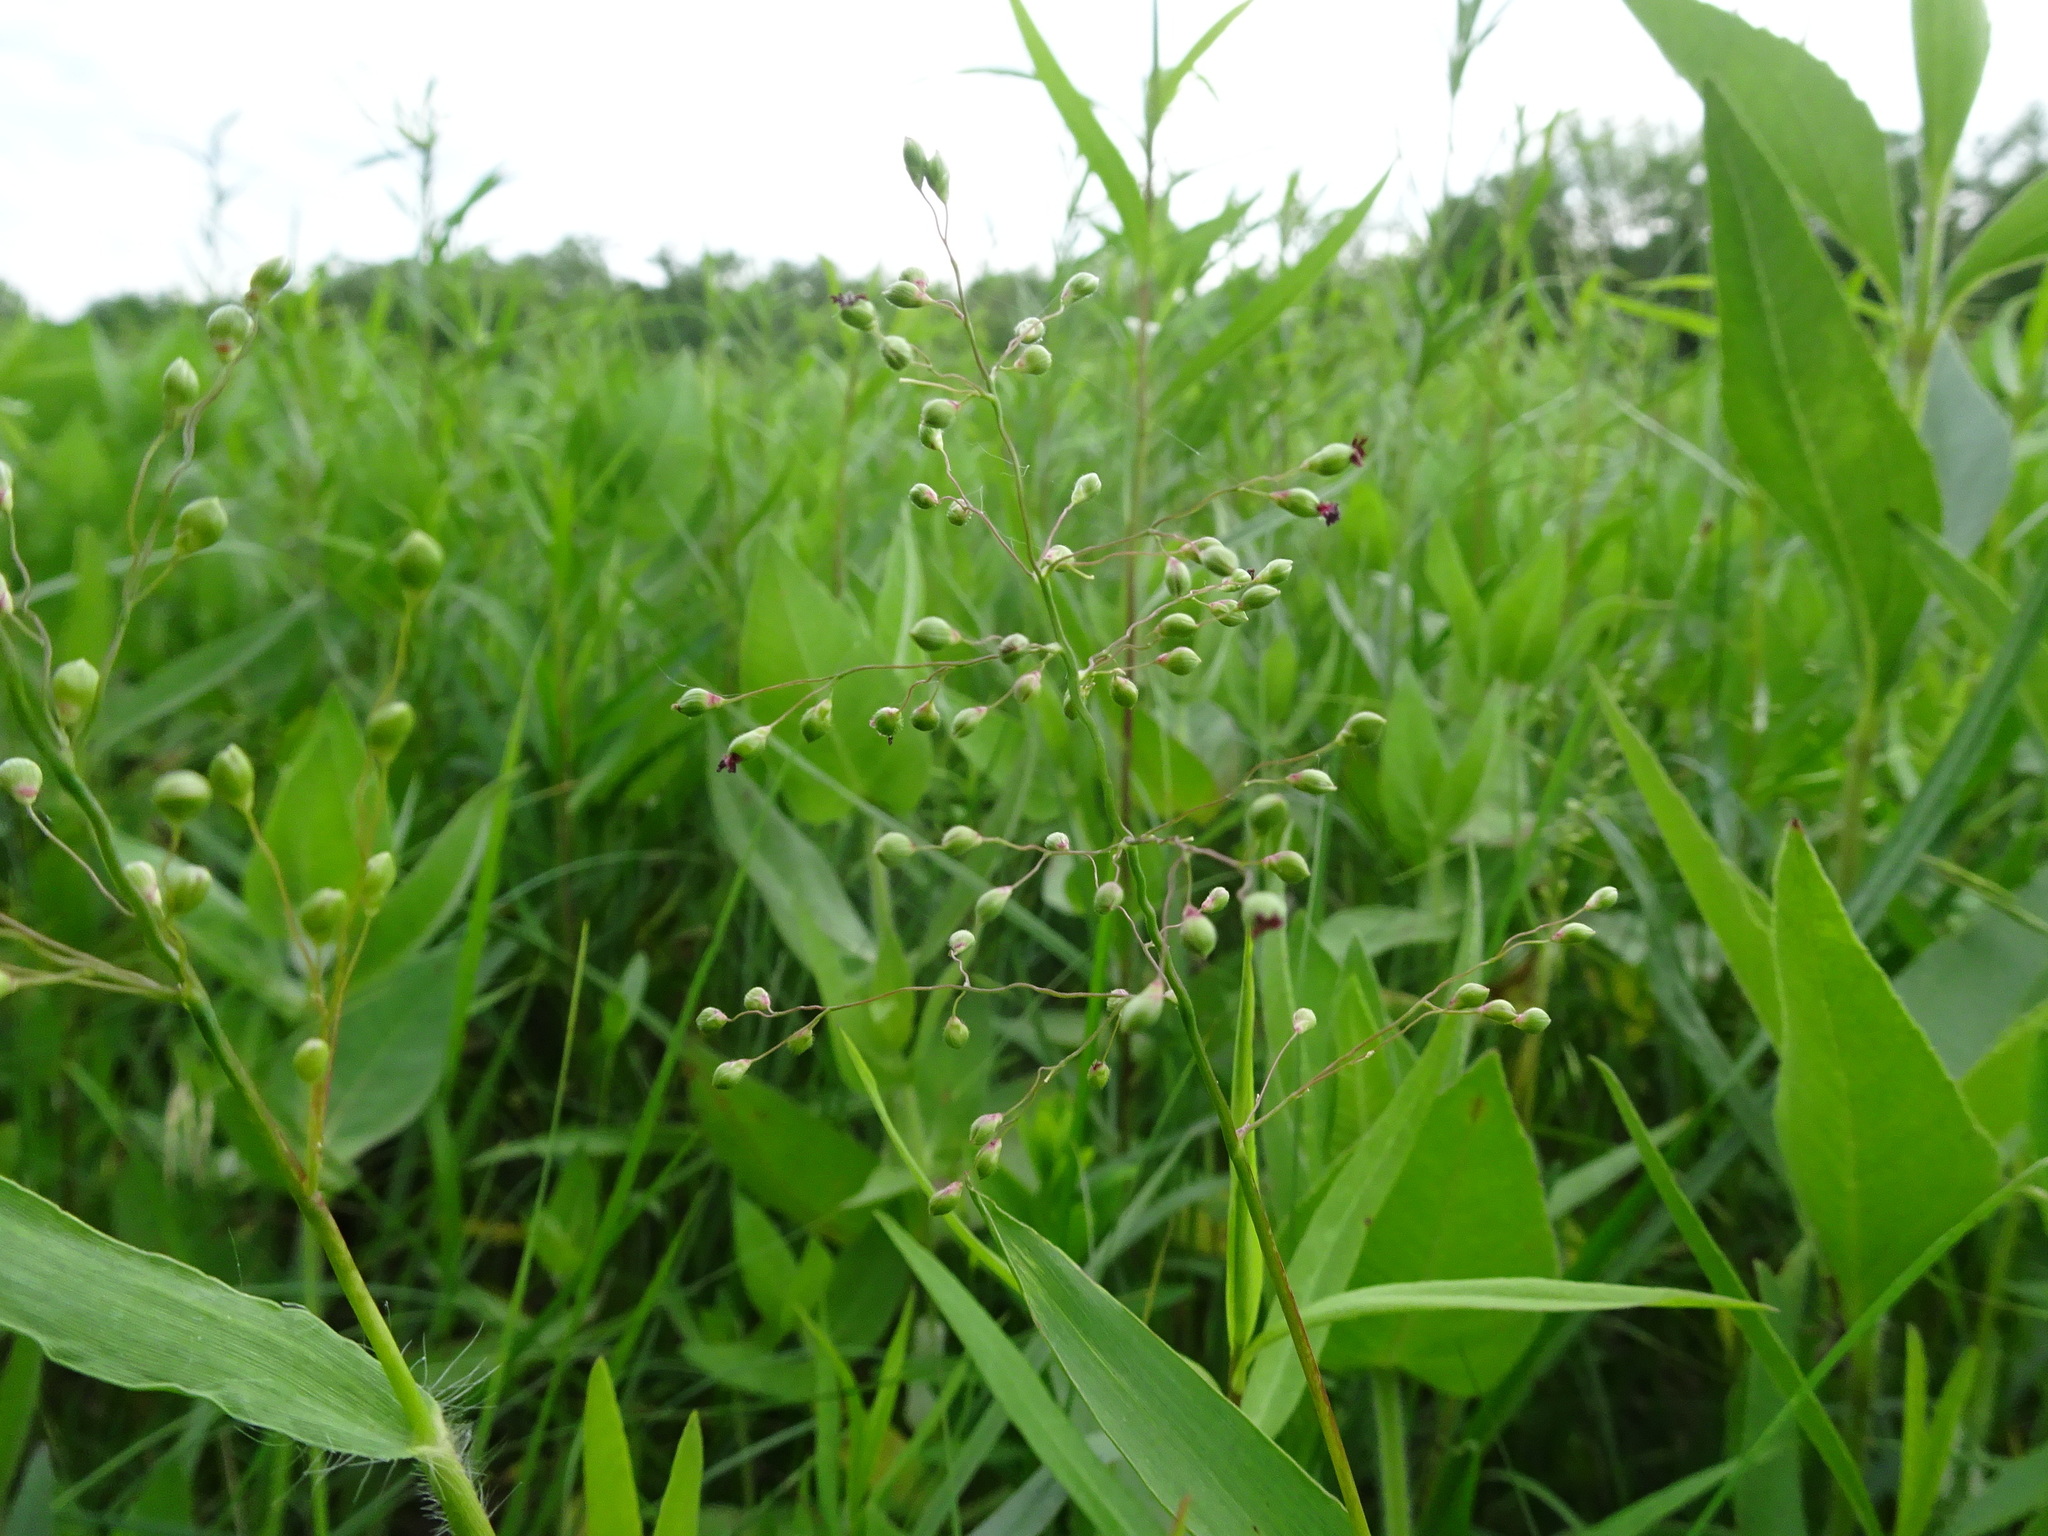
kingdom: Plantae
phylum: Tracheophyta
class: Liliopsida
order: Poales
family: Poaceae
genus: Dichanthelium
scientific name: Dichanthelium scribnerianum
